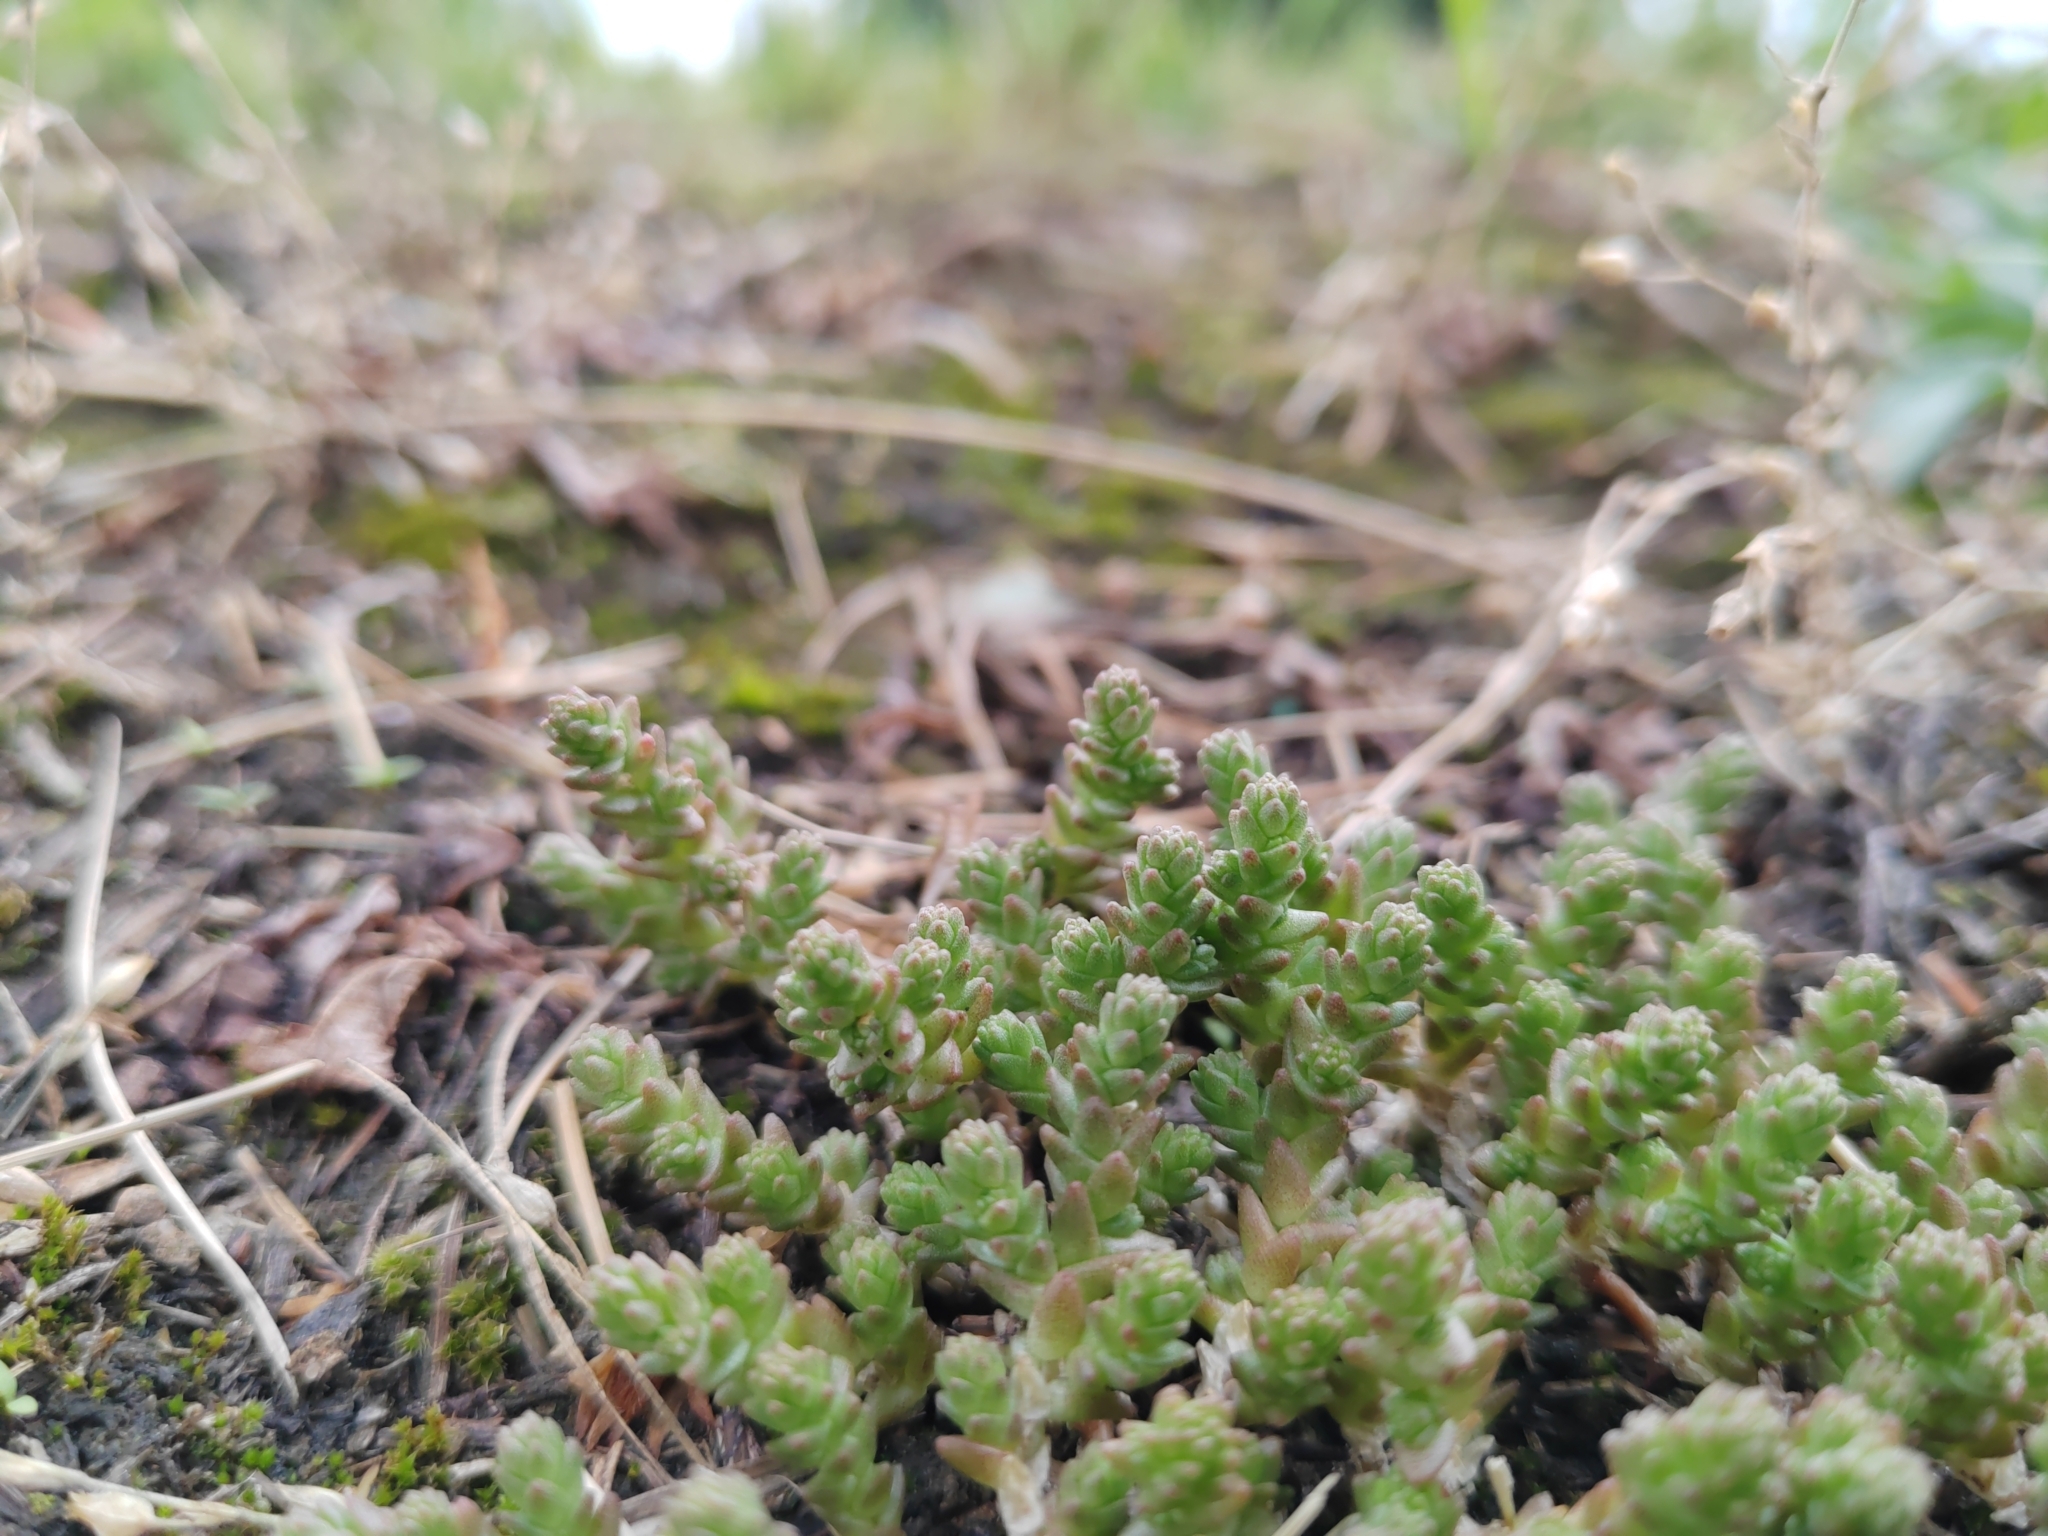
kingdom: Plantae
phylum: Tracheophyta
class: Magnoliopsida
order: Saxifragales
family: Crassulaceae
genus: Sedum
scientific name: Sedum acre
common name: Biting stonecrop
